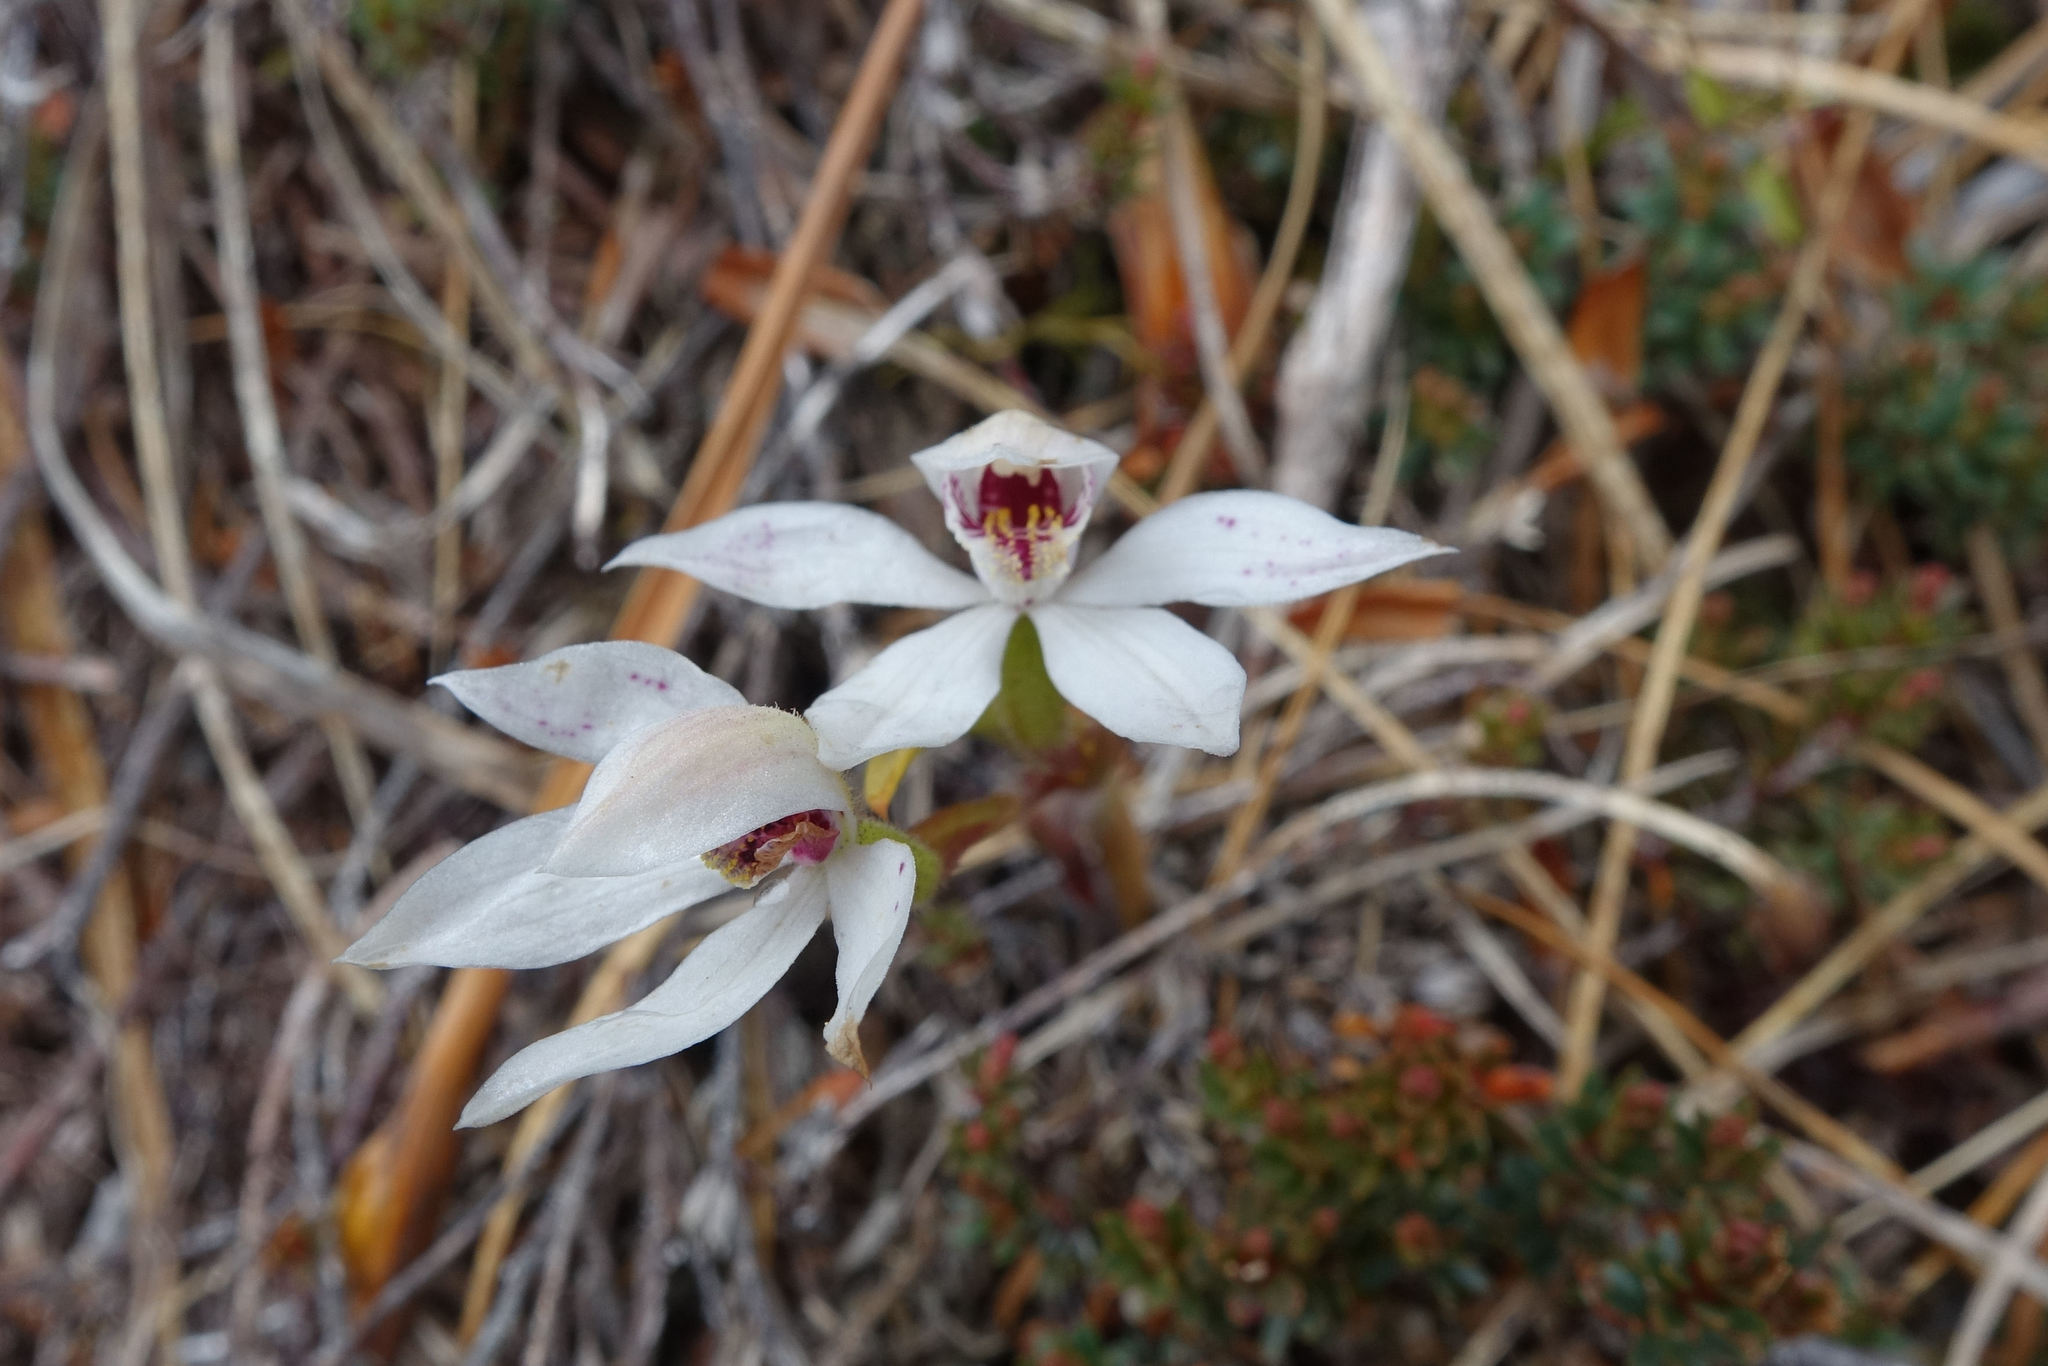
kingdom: Plantae
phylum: Tracheophyta
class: Liliopsida
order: Asparagales
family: Orchidaceae
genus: Caladenia
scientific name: Caladenia lyallii
